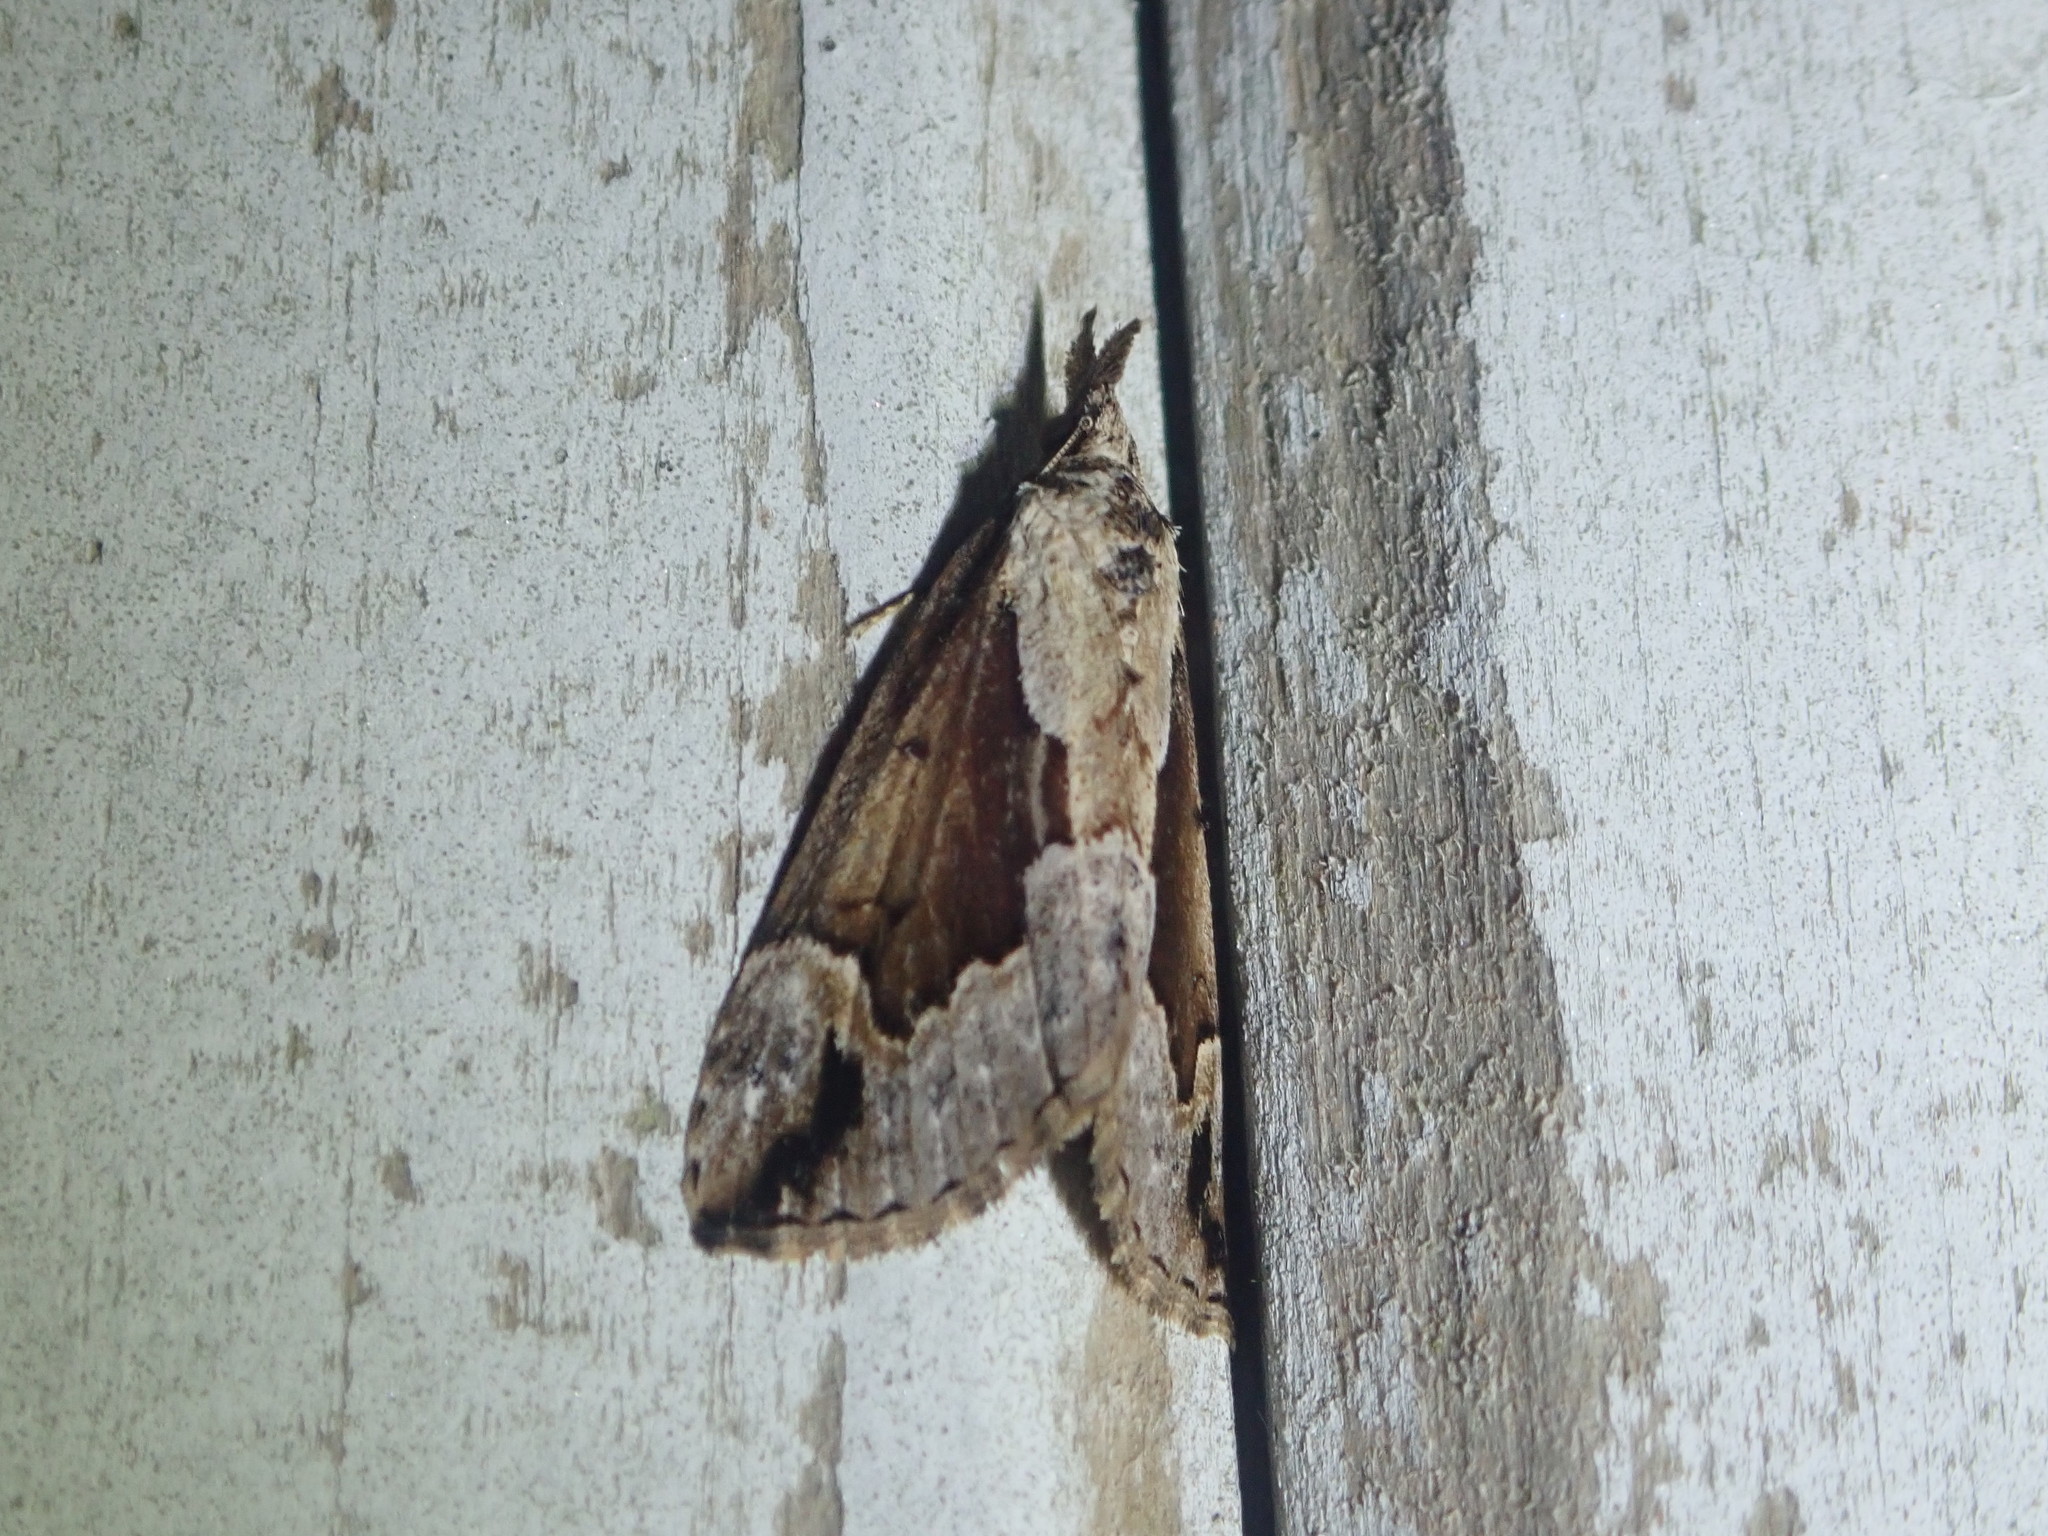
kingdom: Animalia
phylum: Arthropoda
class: Insecta
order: Lepidoptera
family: Erebidae
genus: Hypena
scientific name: Hypena baltimoralis
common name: Baltimore snout
